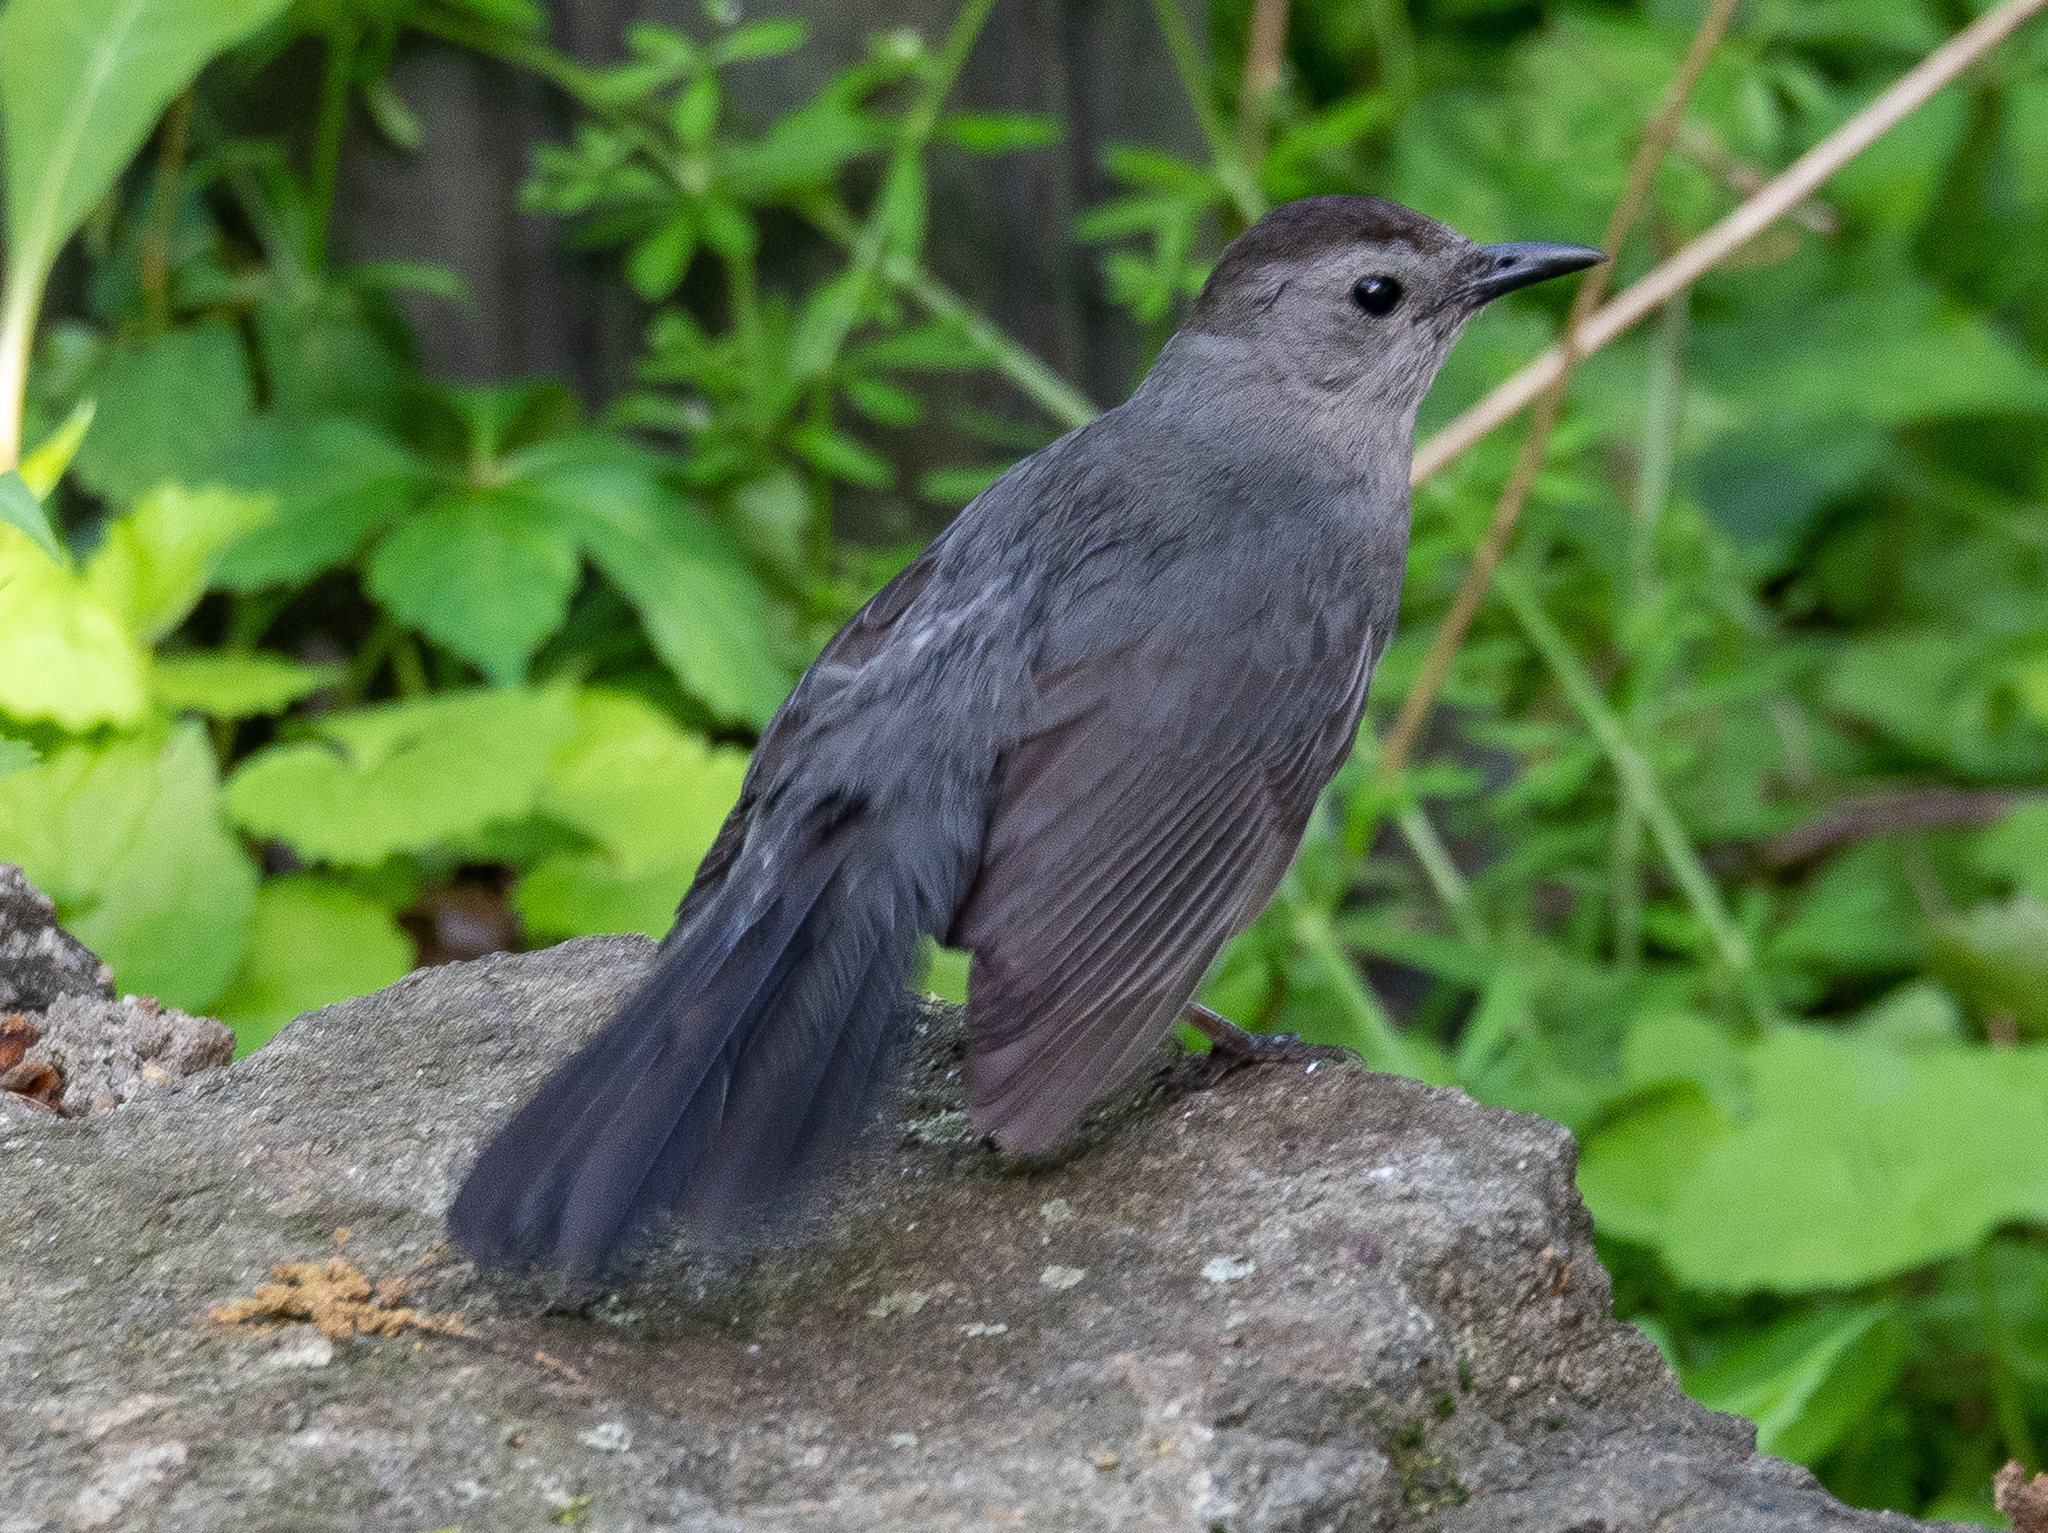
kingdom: Animalia
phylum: Chordata
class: Aves
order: Passeriformes
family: Mimidae
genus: Dumetella
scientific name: Dumetella carolinensis
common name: Gray catbird
